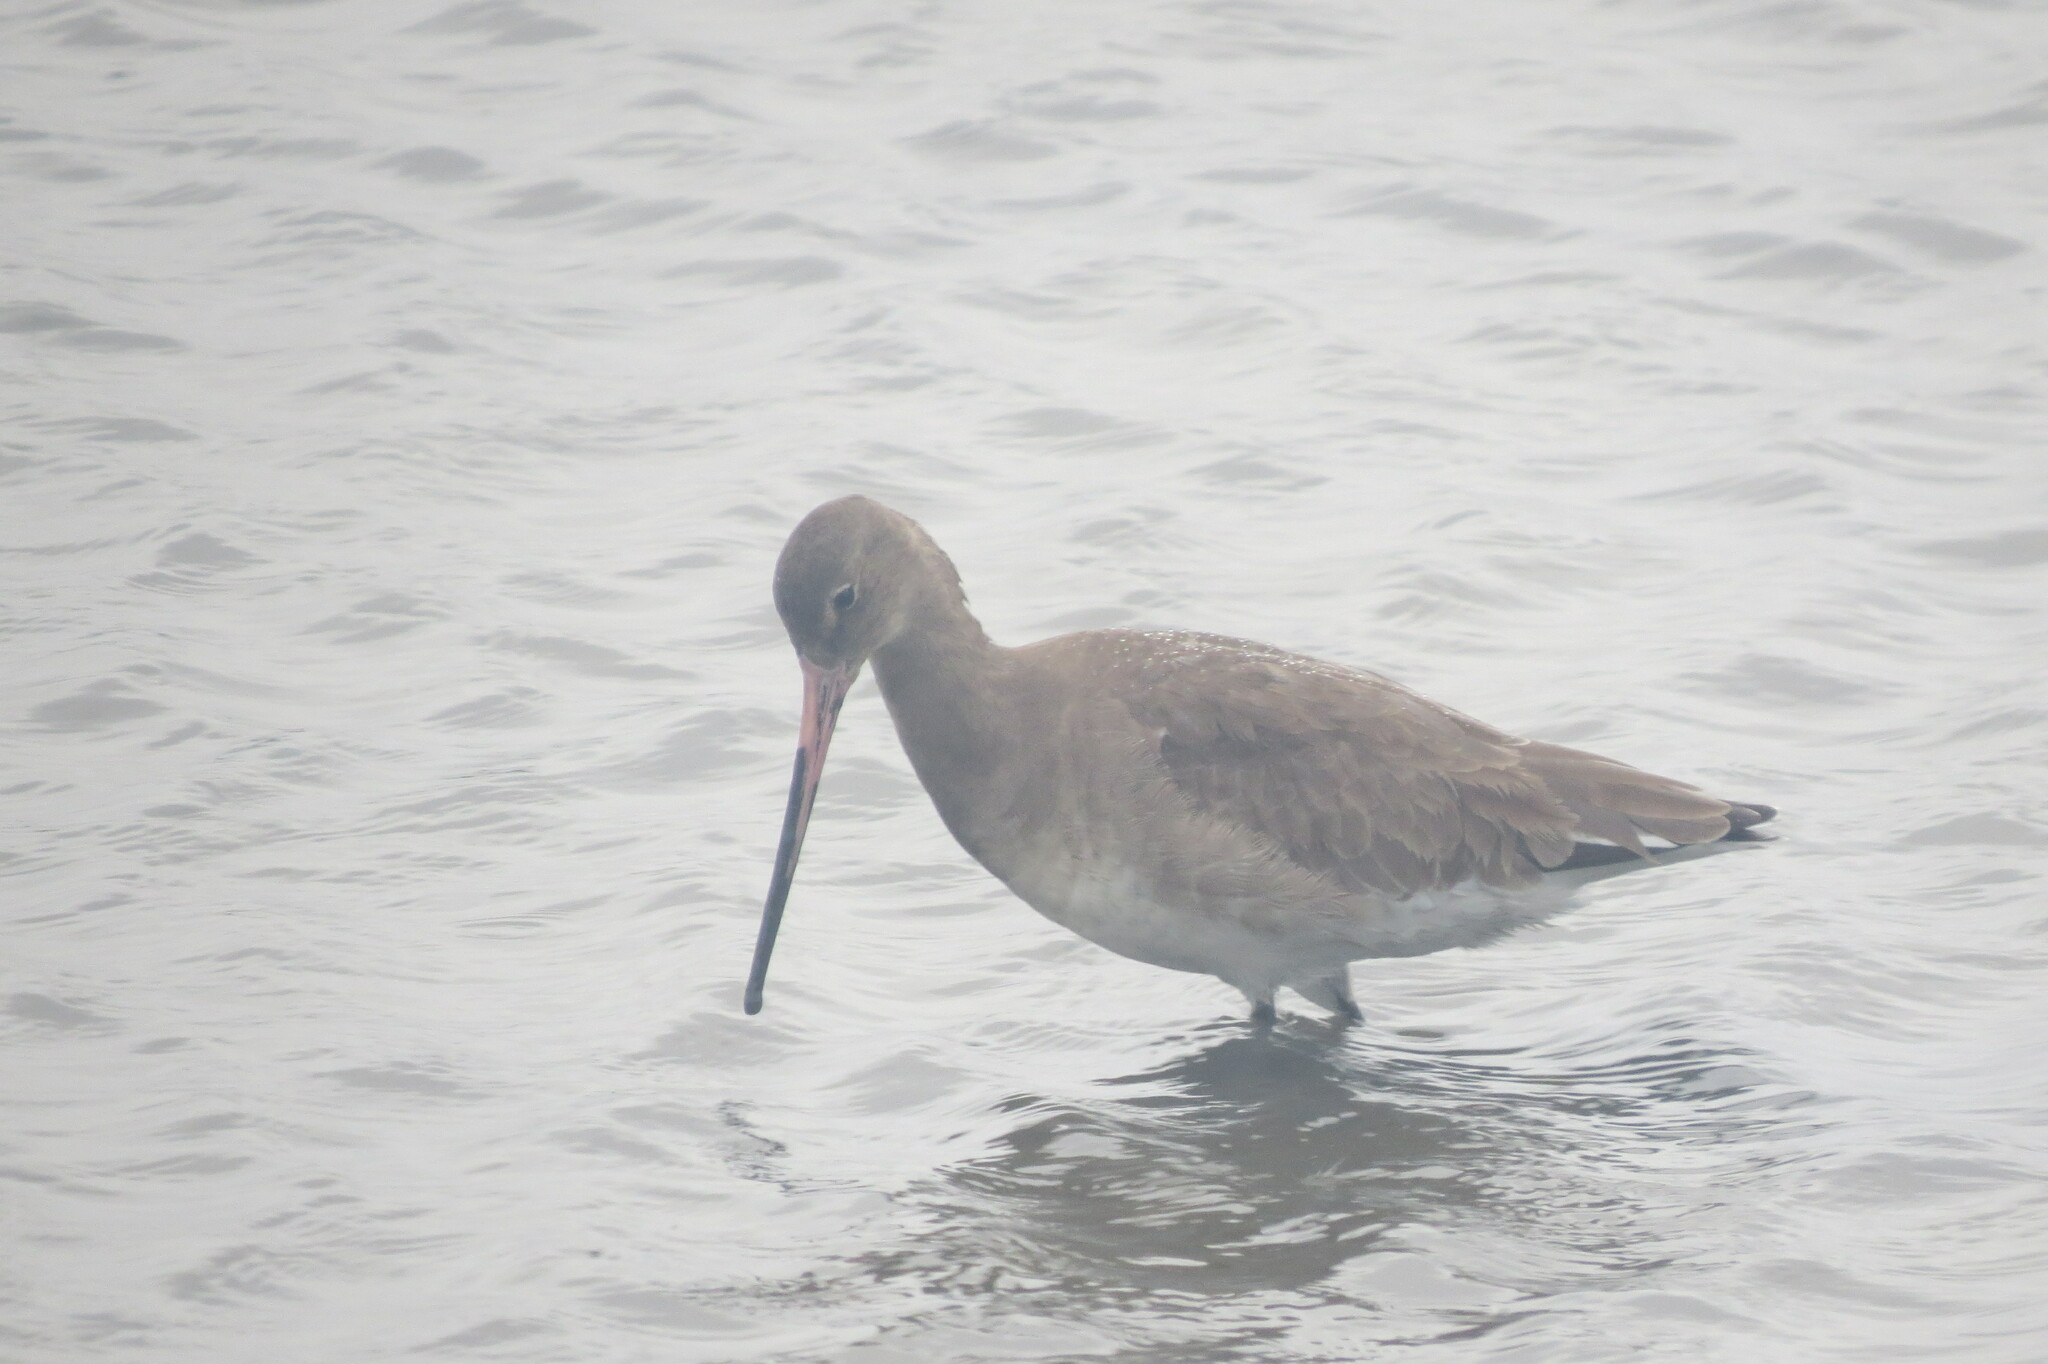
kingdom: Animalia
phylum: Chordata
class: Aves
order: Charadriiformes
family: Scolopacidae
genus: Limosa
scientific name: Limosa limosa
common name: Black-tailed godwit
